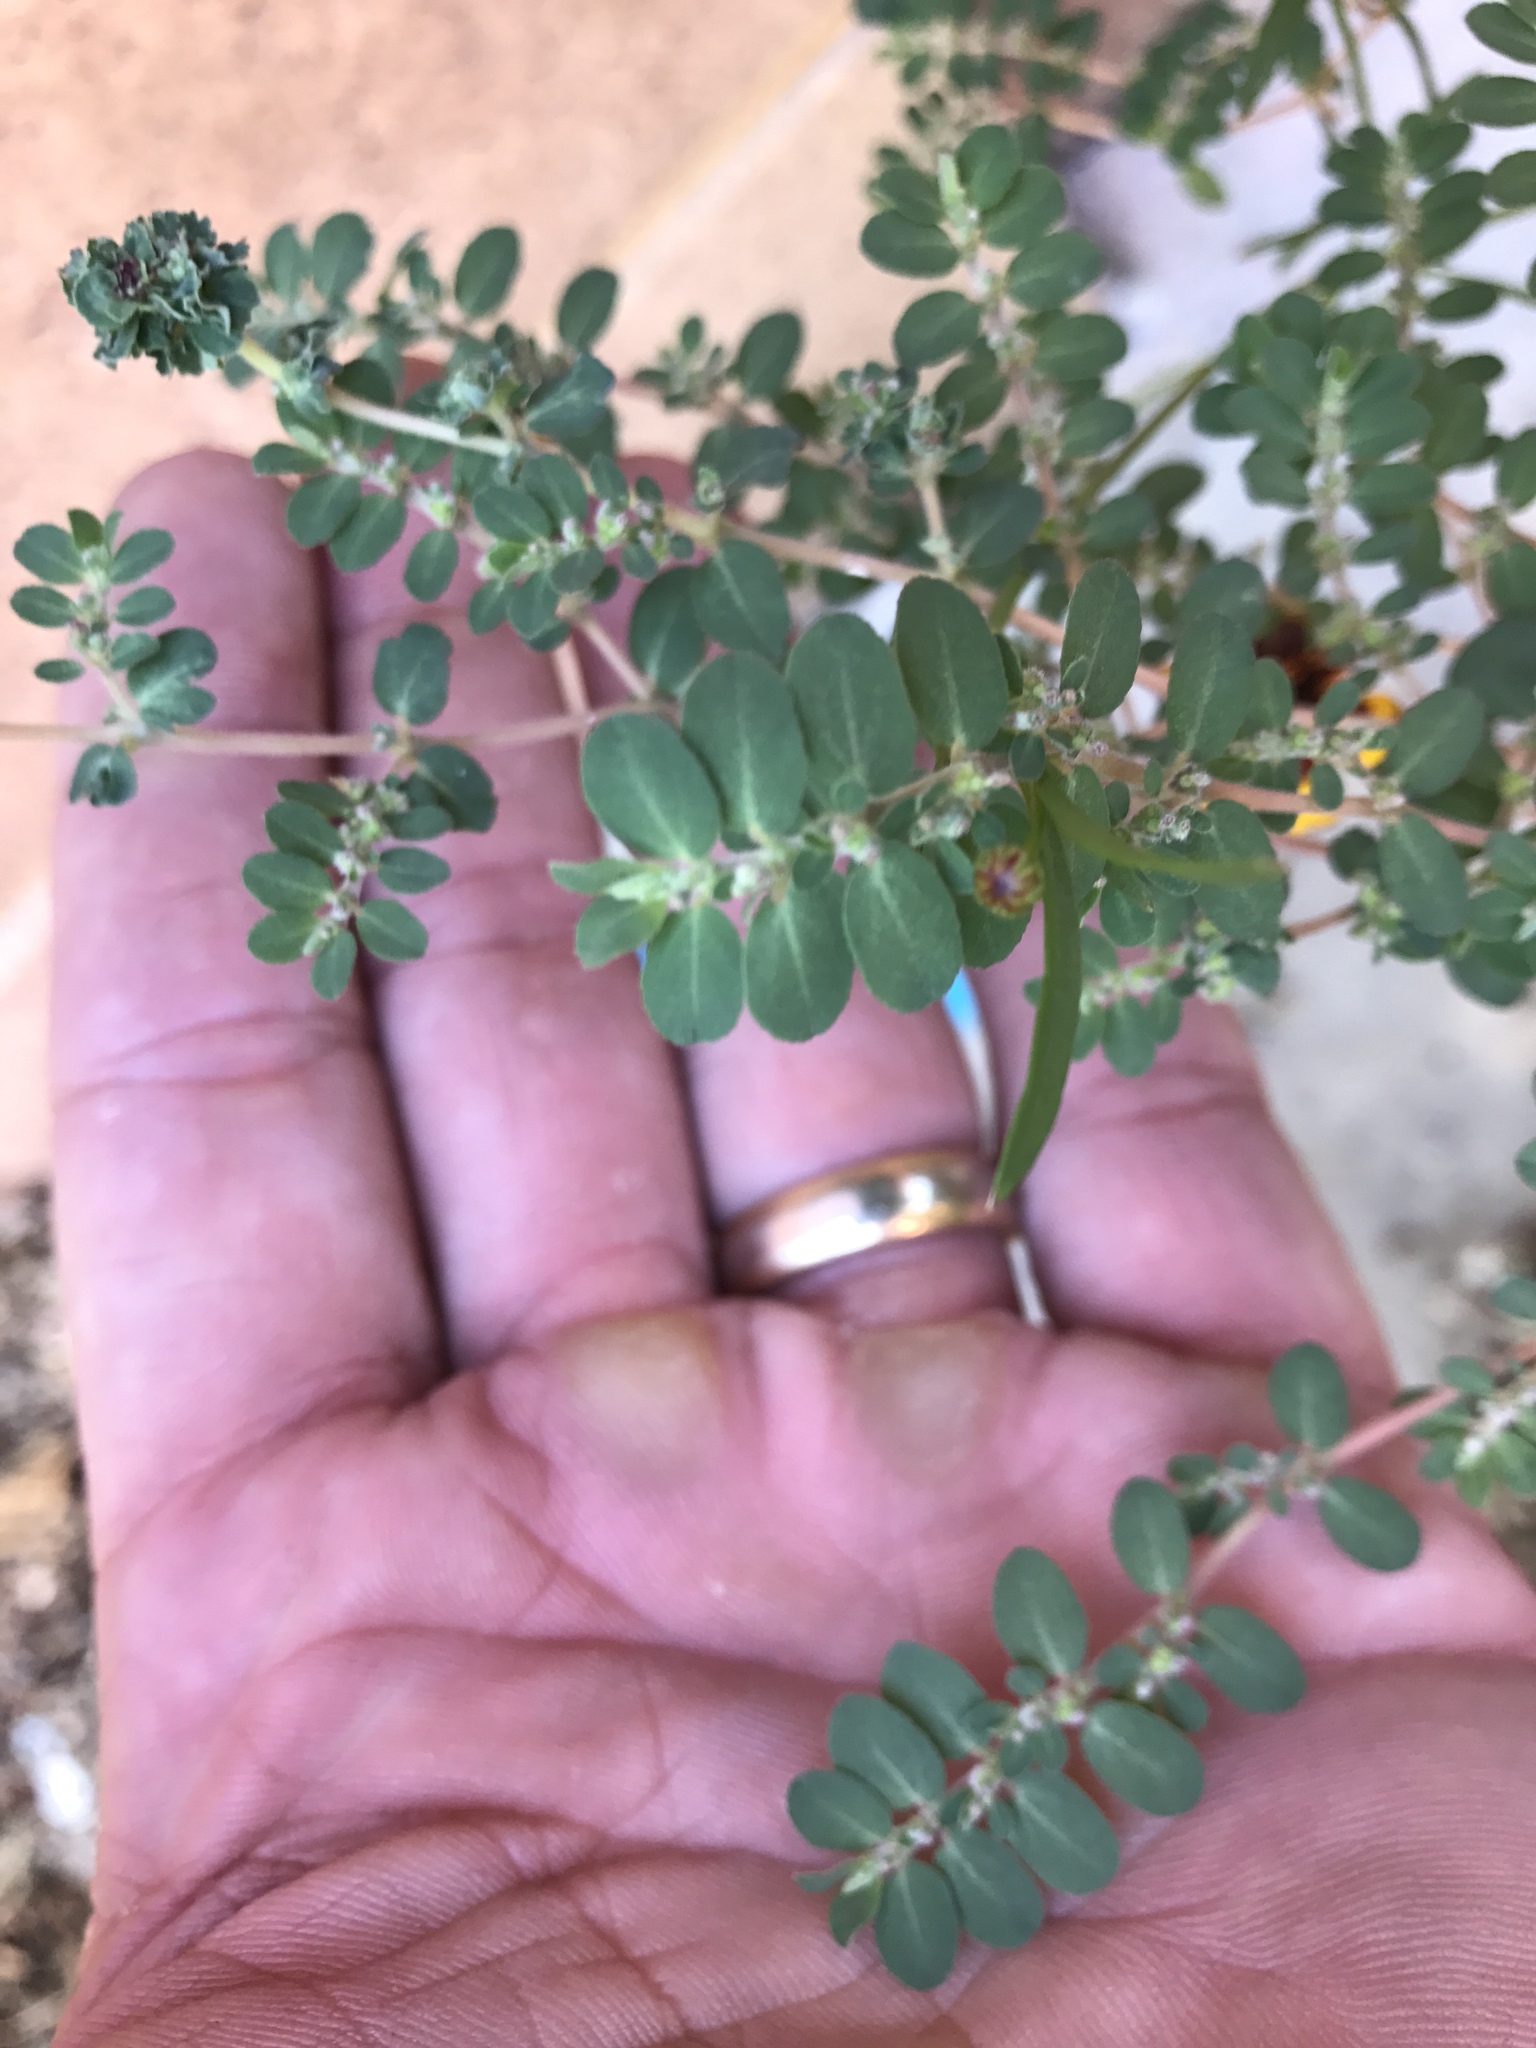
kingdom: Plantae
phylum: Tracheophyta
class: Magnoliopsida
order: Malpighiales
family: Euphorbiaceae
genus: Euphorbia
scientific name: Euphorbia prostrata
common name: Prostrate sandmat
